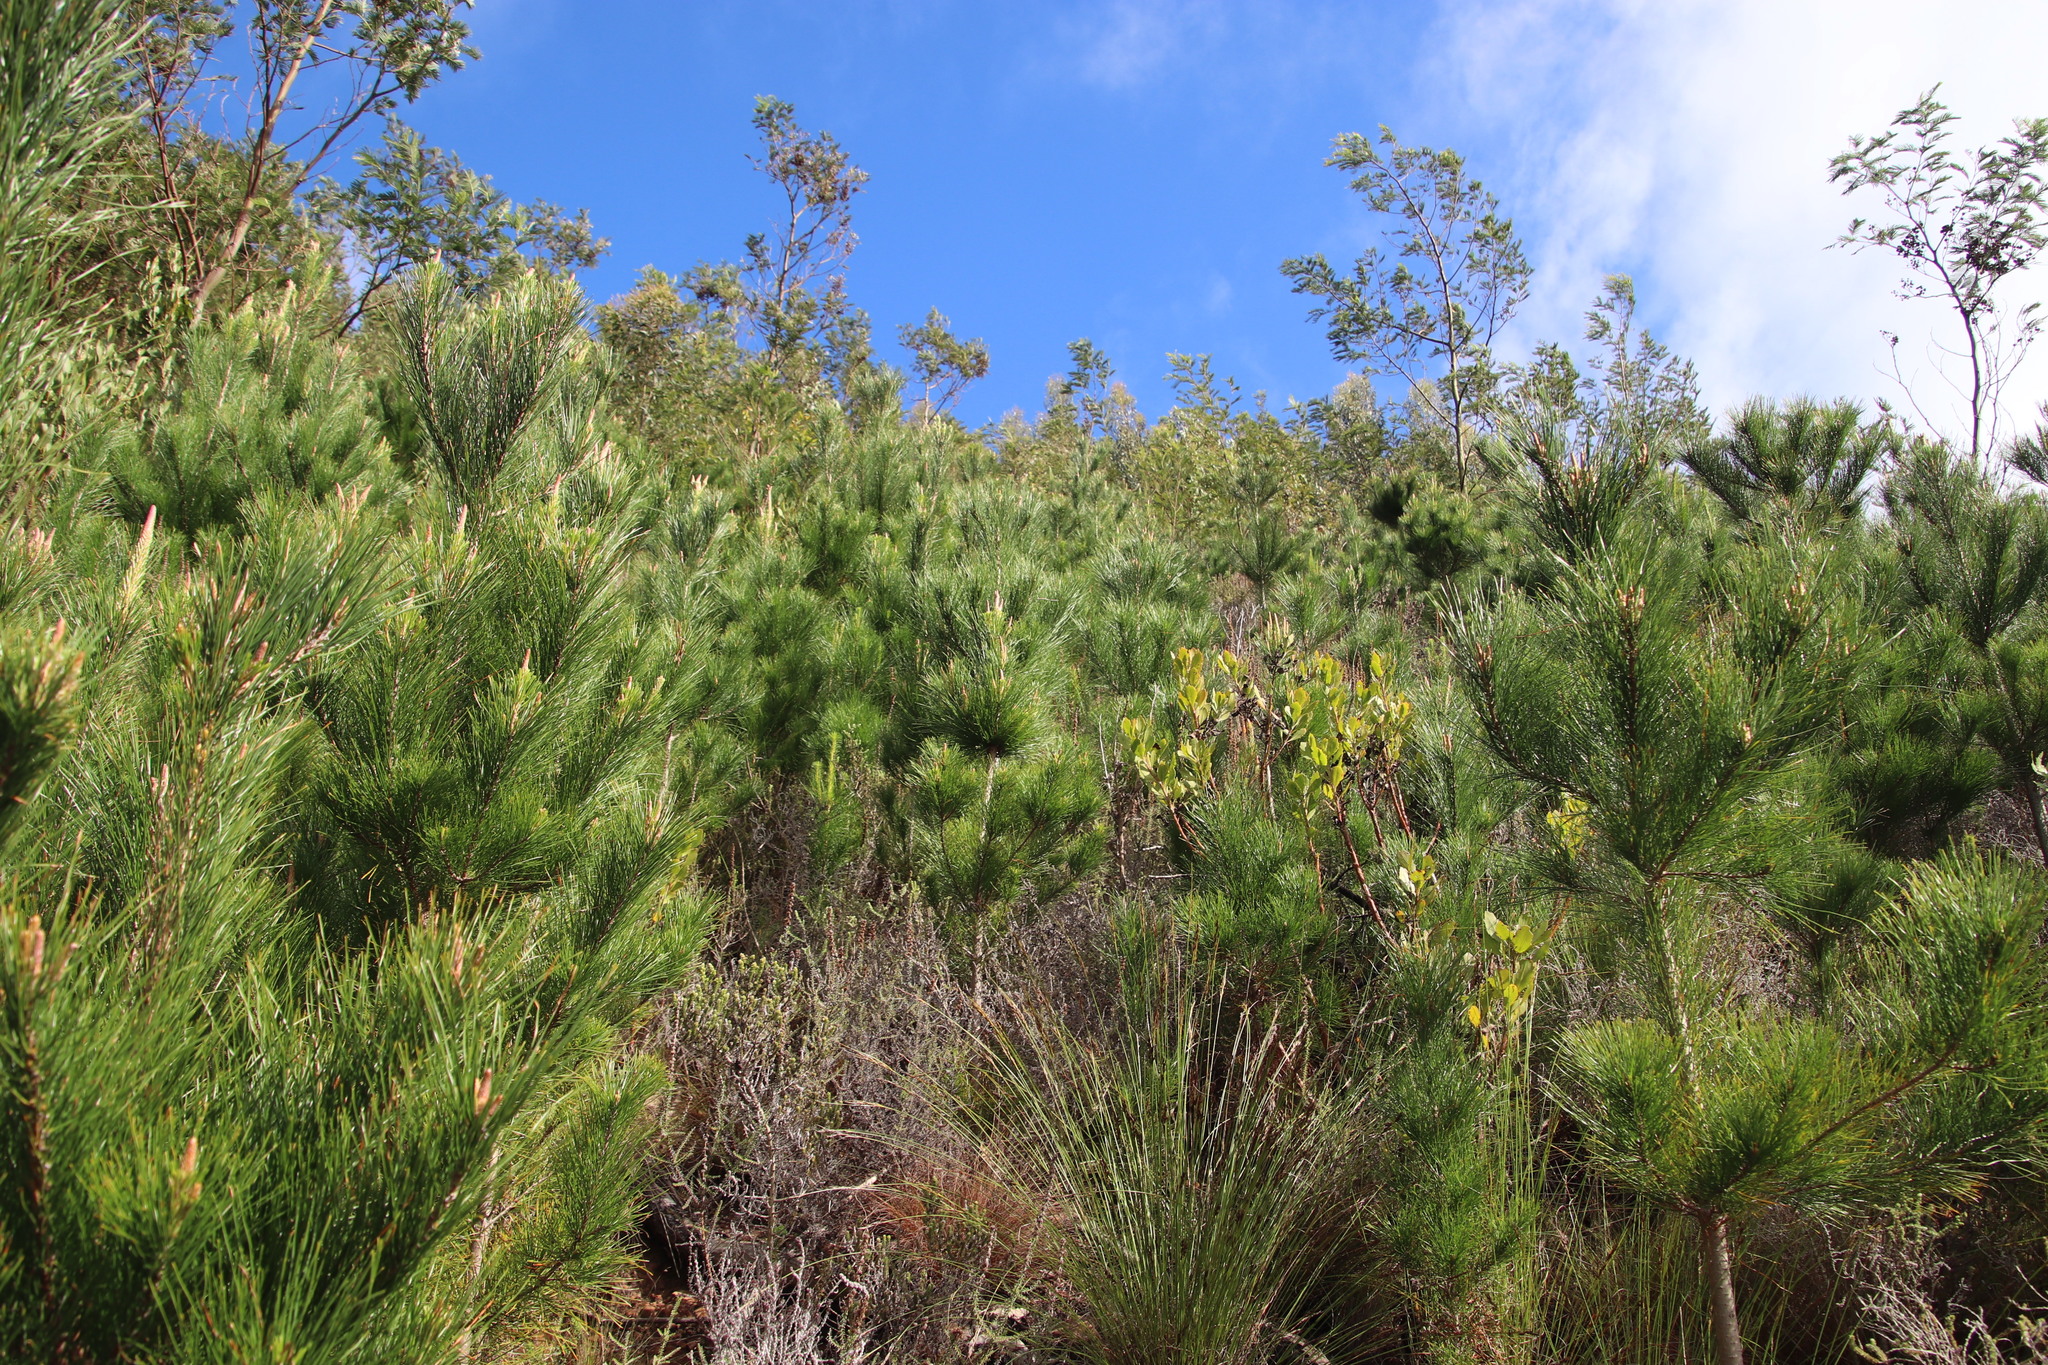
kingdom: Plantae
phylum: Tracheophyta
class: Pinopsida
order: Pinales
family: Pinaceae
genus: Pinus
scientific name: Pinus radiata
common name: Monterey pine
